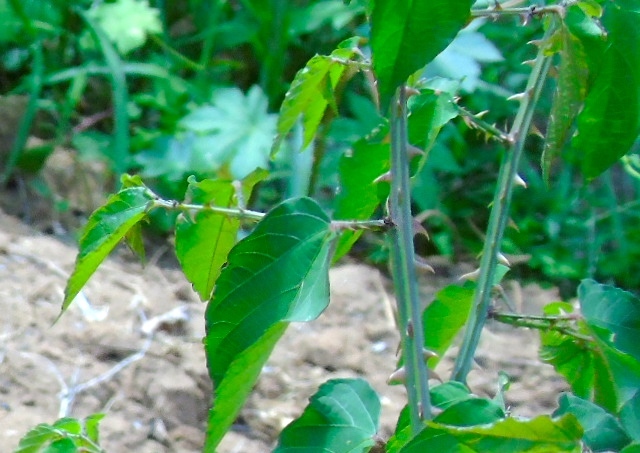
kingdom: Plantae
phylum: Tracheophyta
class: Magnoliopsida
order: Malvales
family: Malvaceae
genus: Byttneria
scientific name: Byttneria aculeata
